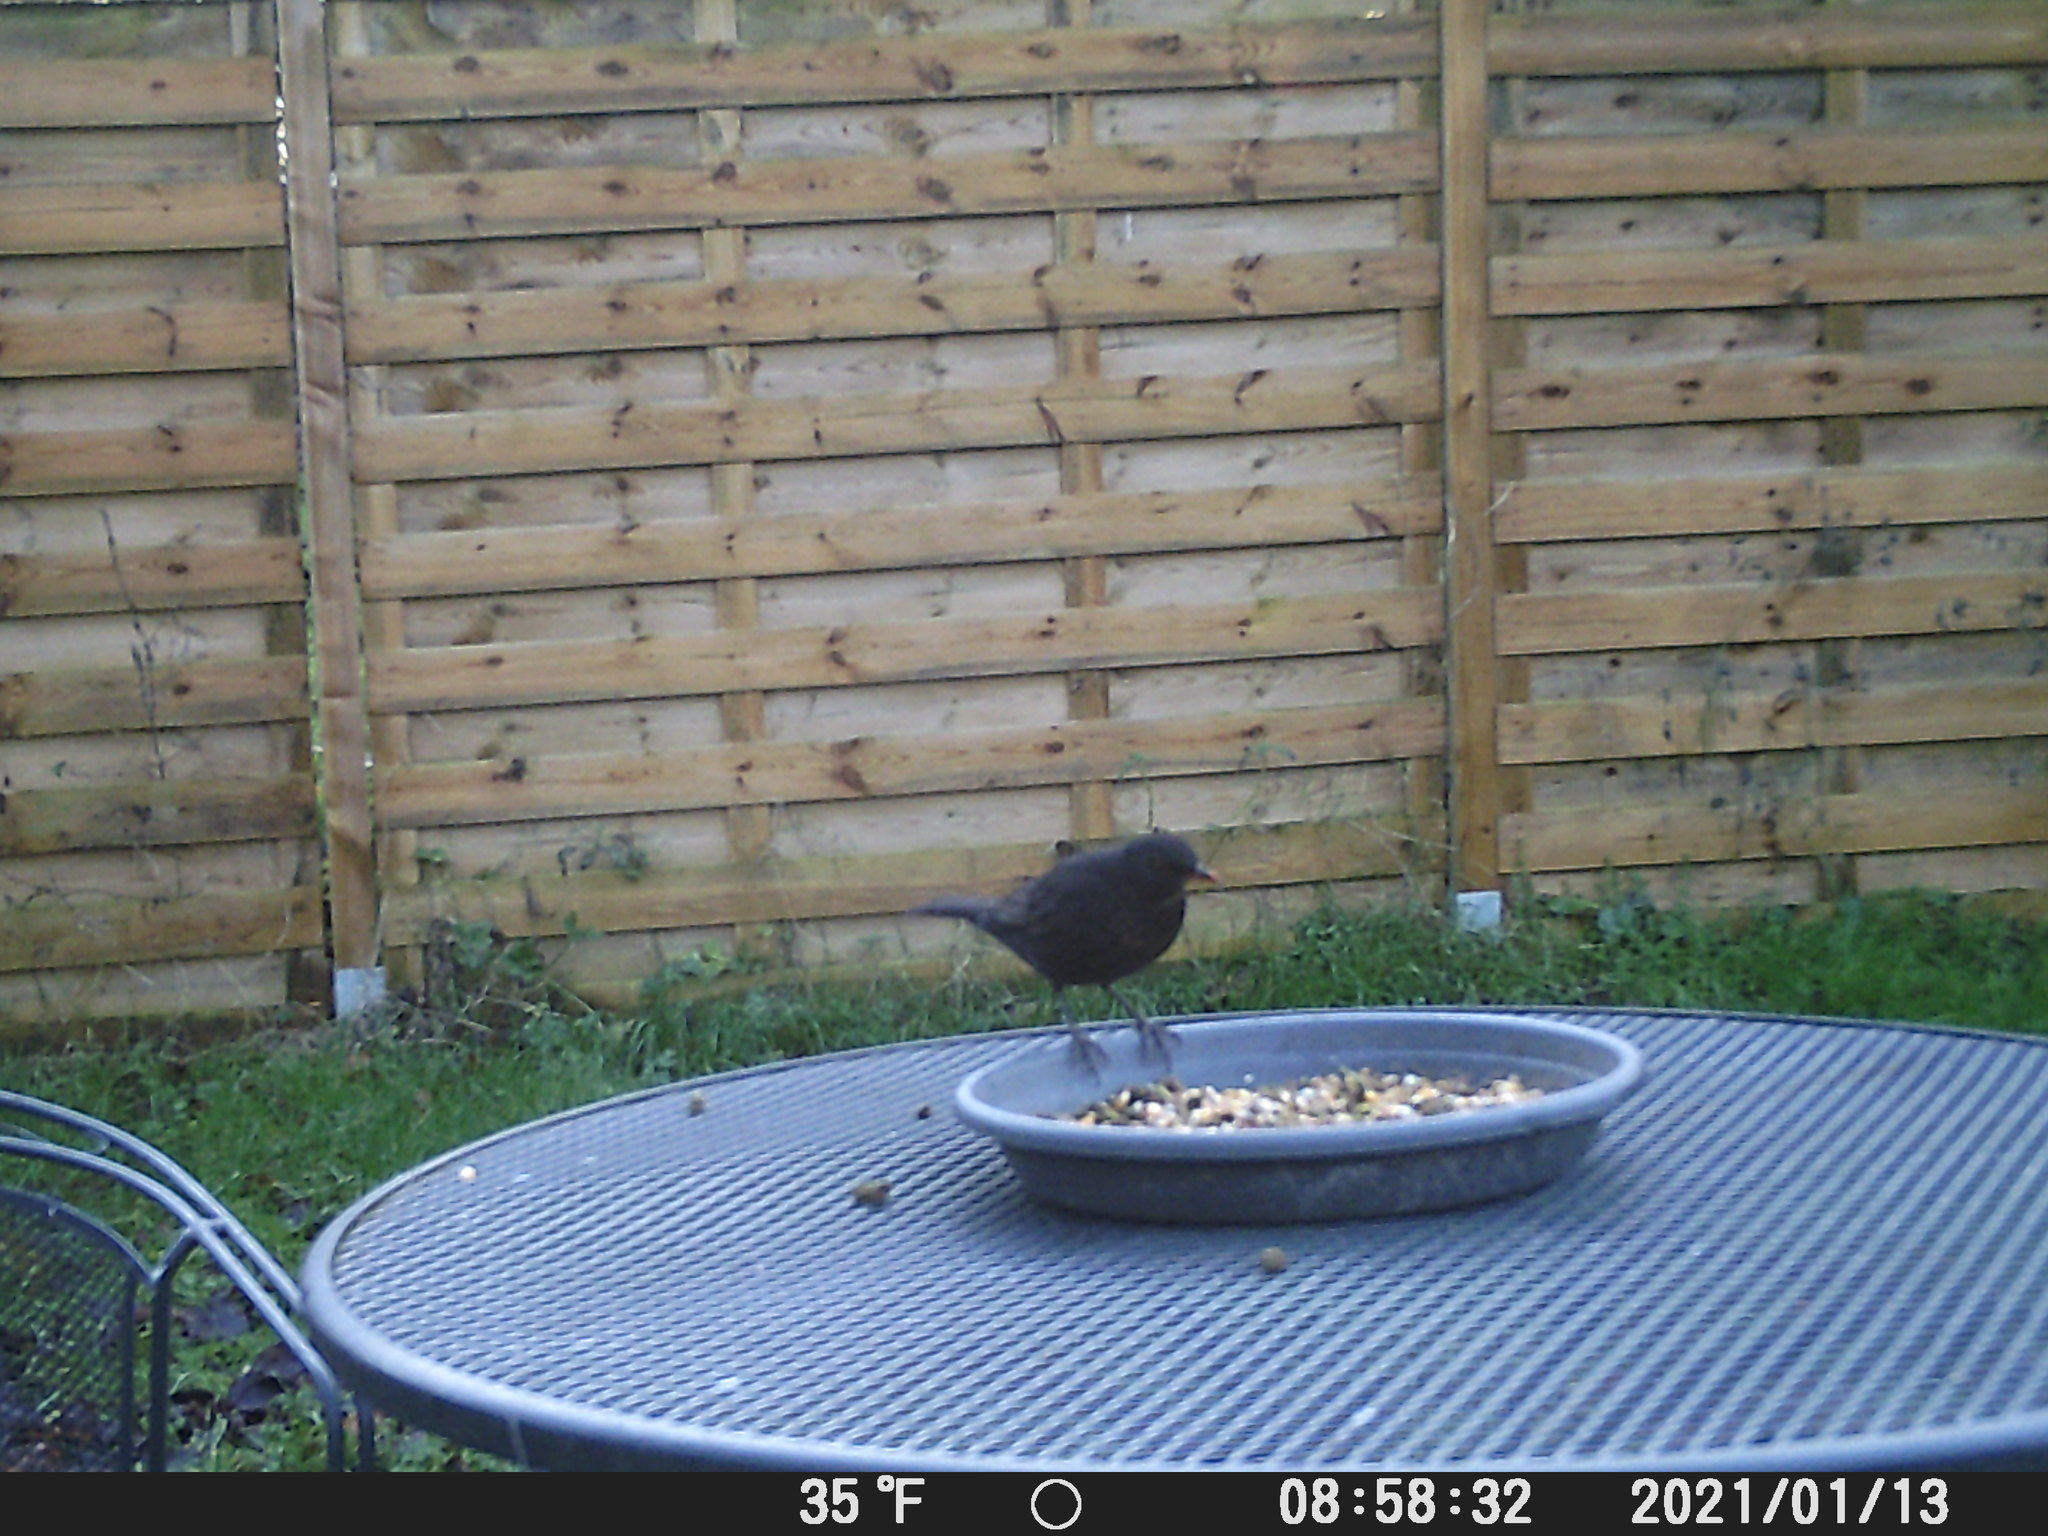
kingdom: Animalia
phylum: Chordata
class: Aves
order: Passeriformes
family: Turdidae
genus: Turdus
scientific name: Turdus merula
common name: Common blackbird
